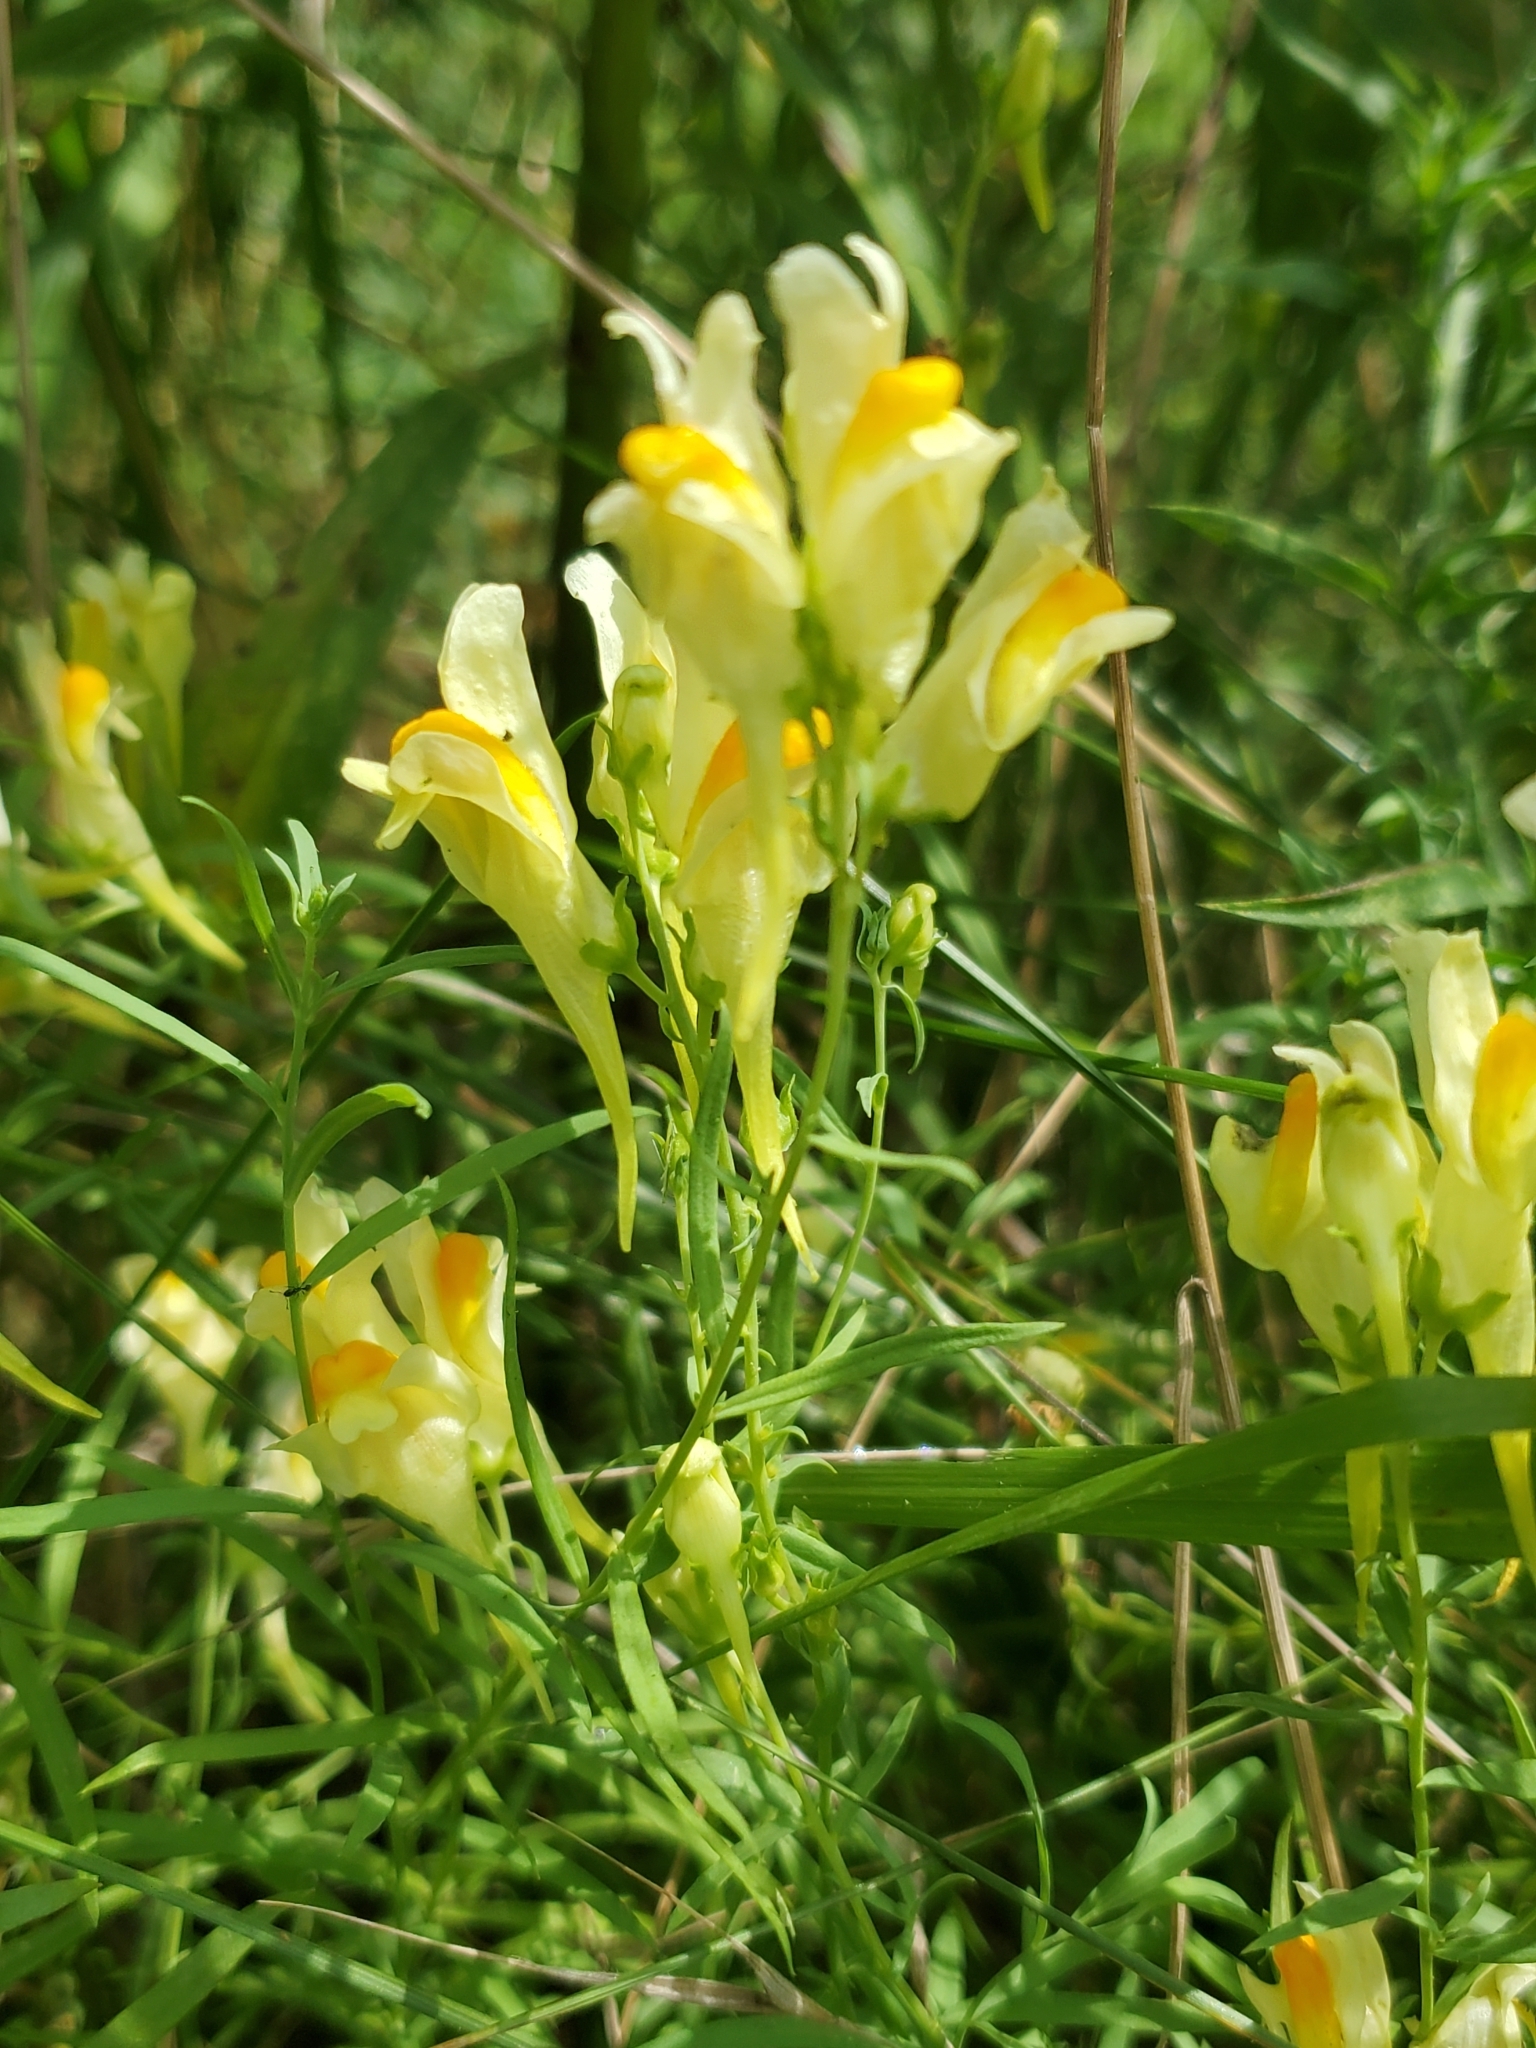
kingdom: Plantae
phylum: Tracheophyta
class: Magnoliopsida
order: Lamiales
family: Plantaginaceae
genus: Linaria
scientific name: Linaria vulgaris
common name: Butter and eggs
